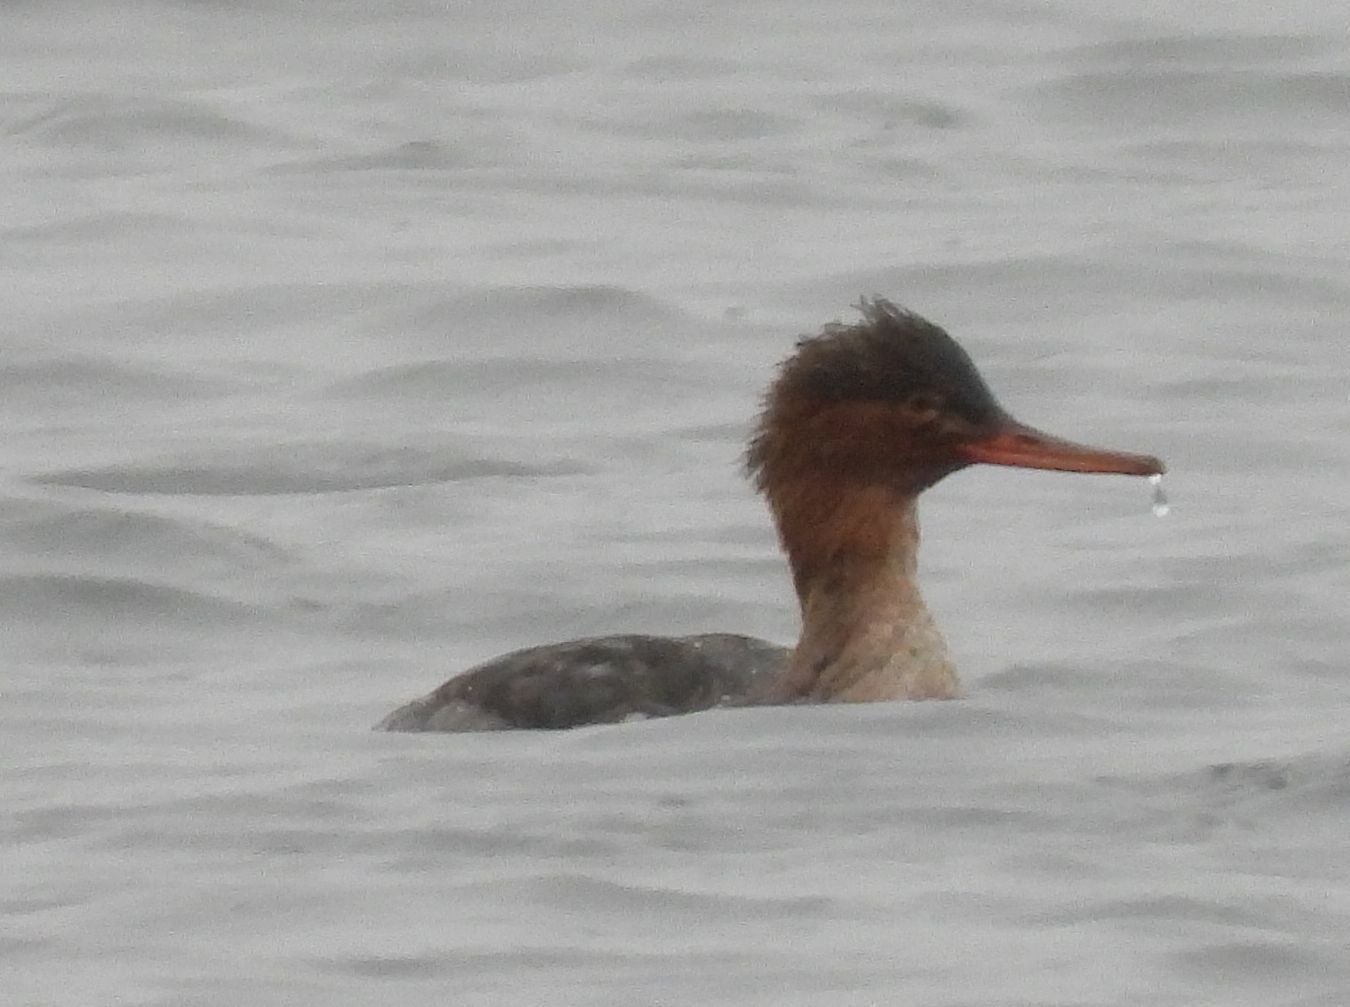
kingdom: Animalia
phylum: Chordata
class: Aves
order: Anseriformes
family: Anatidae
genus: Mergus
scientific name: Mergus serrator
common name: Red-breasted merganser
